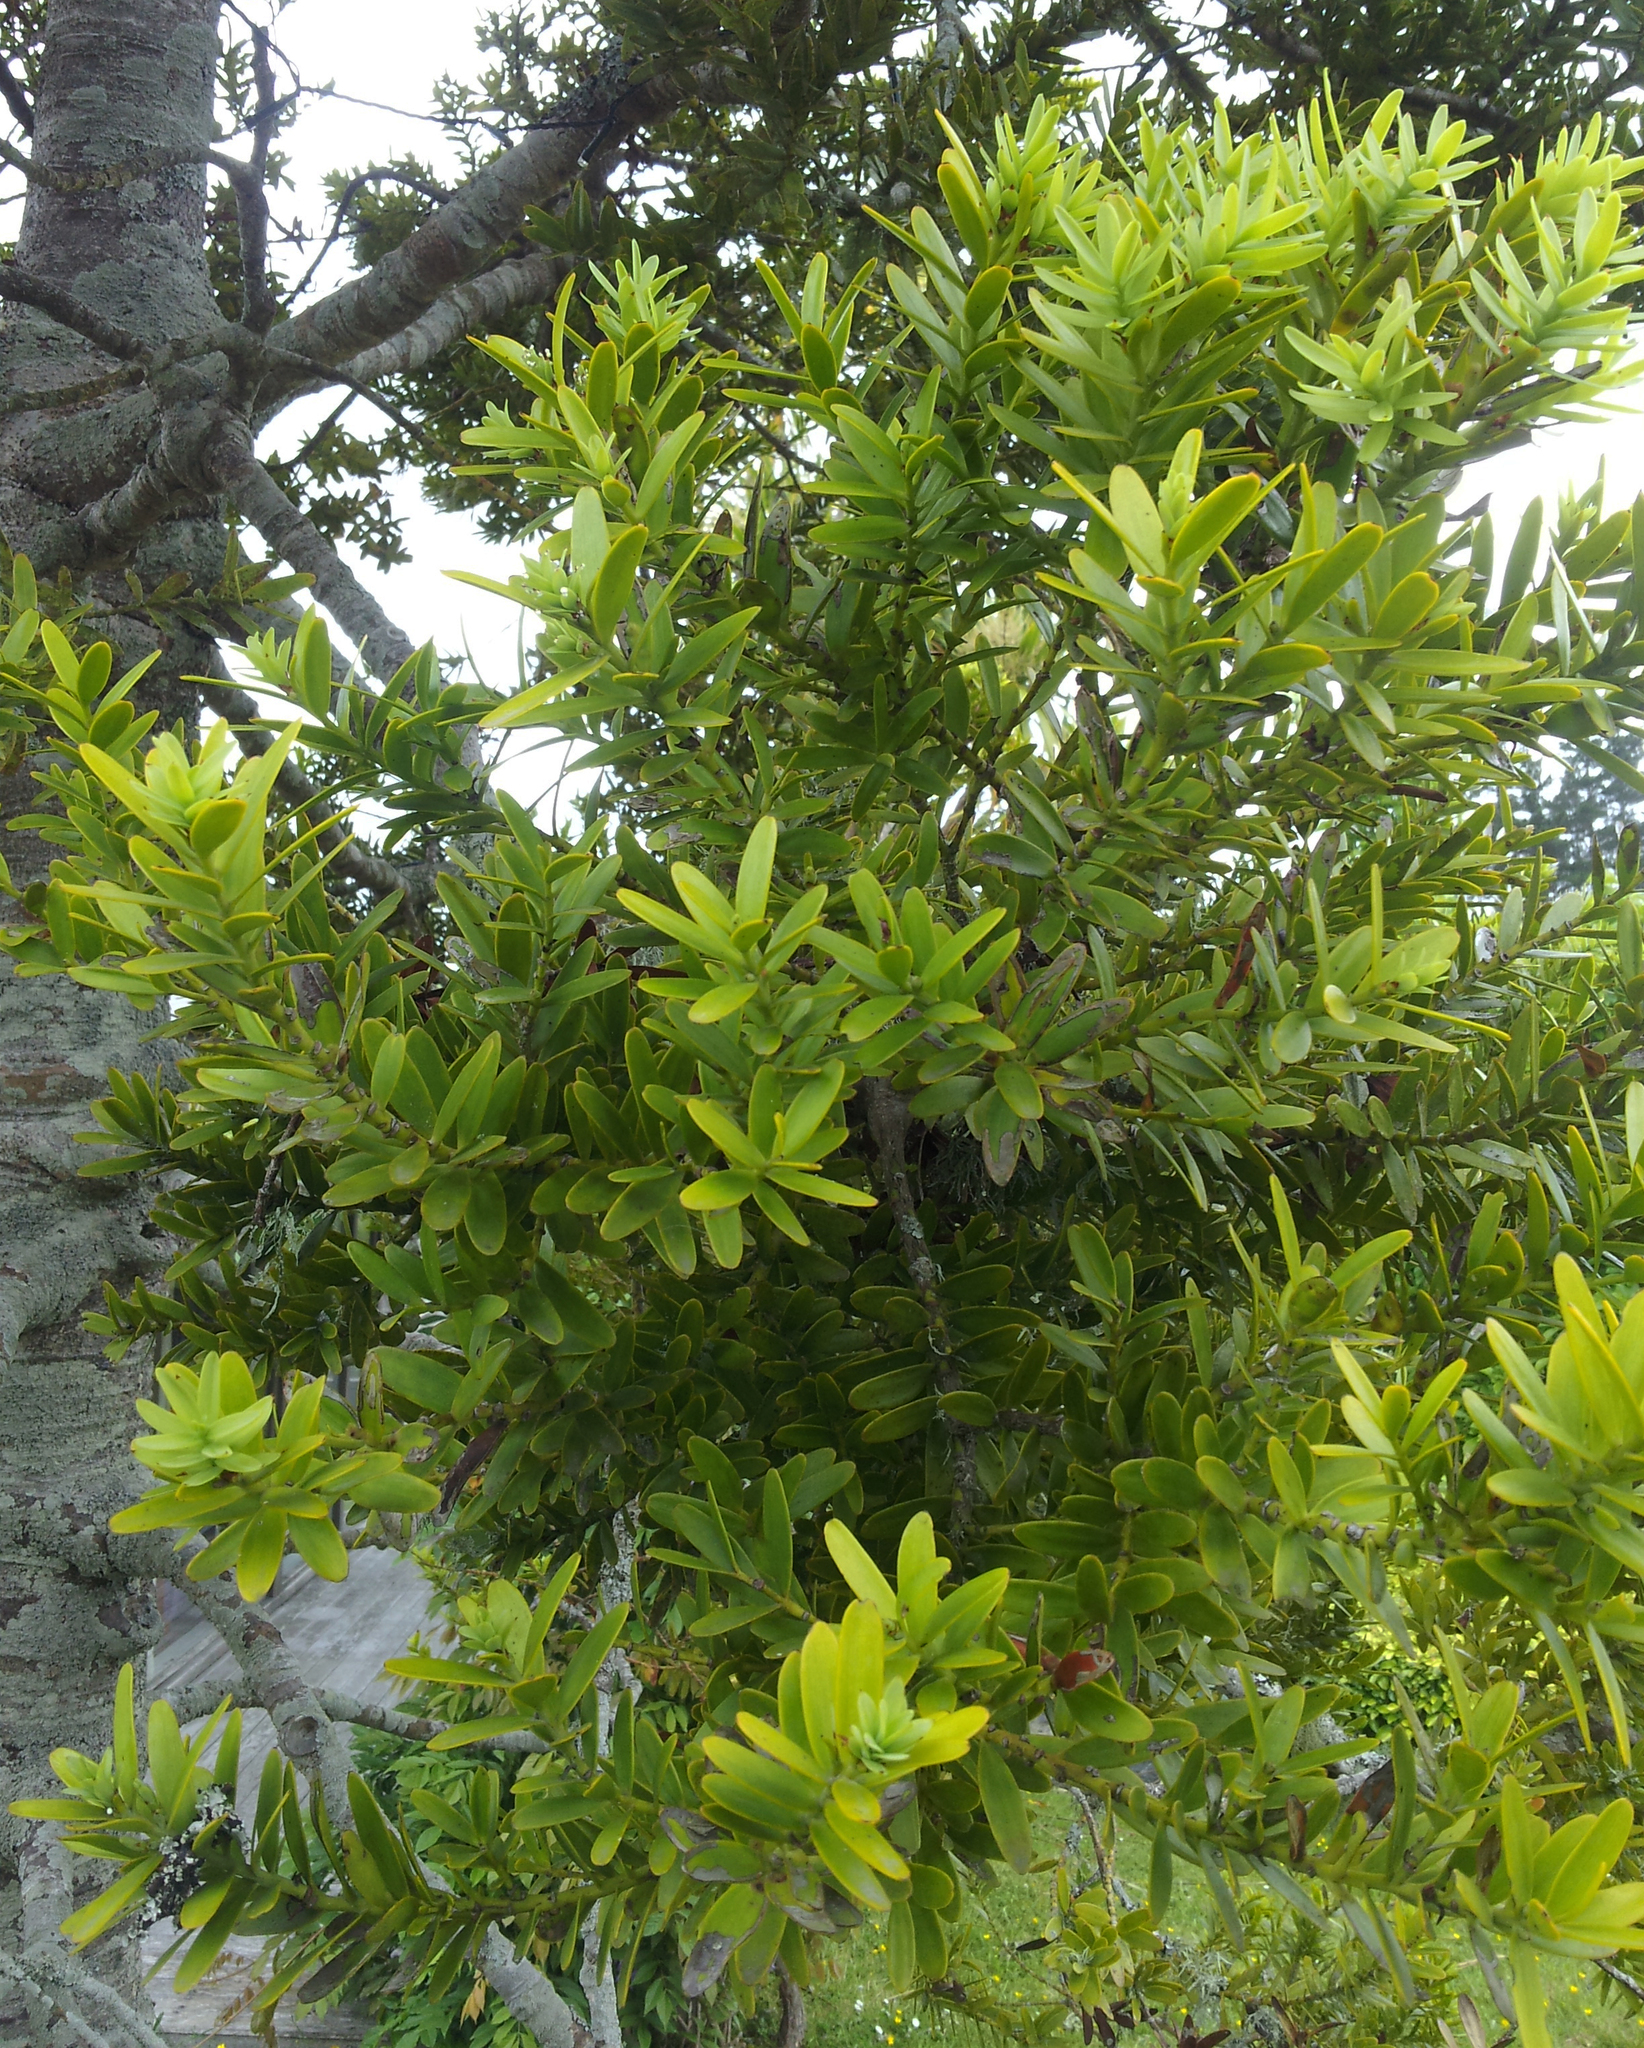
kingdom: Plantae
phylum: Tracheophyta
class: Pinopsida
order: Pinales
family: Araucariaceae
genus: Agathis
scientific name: Agathis australis
